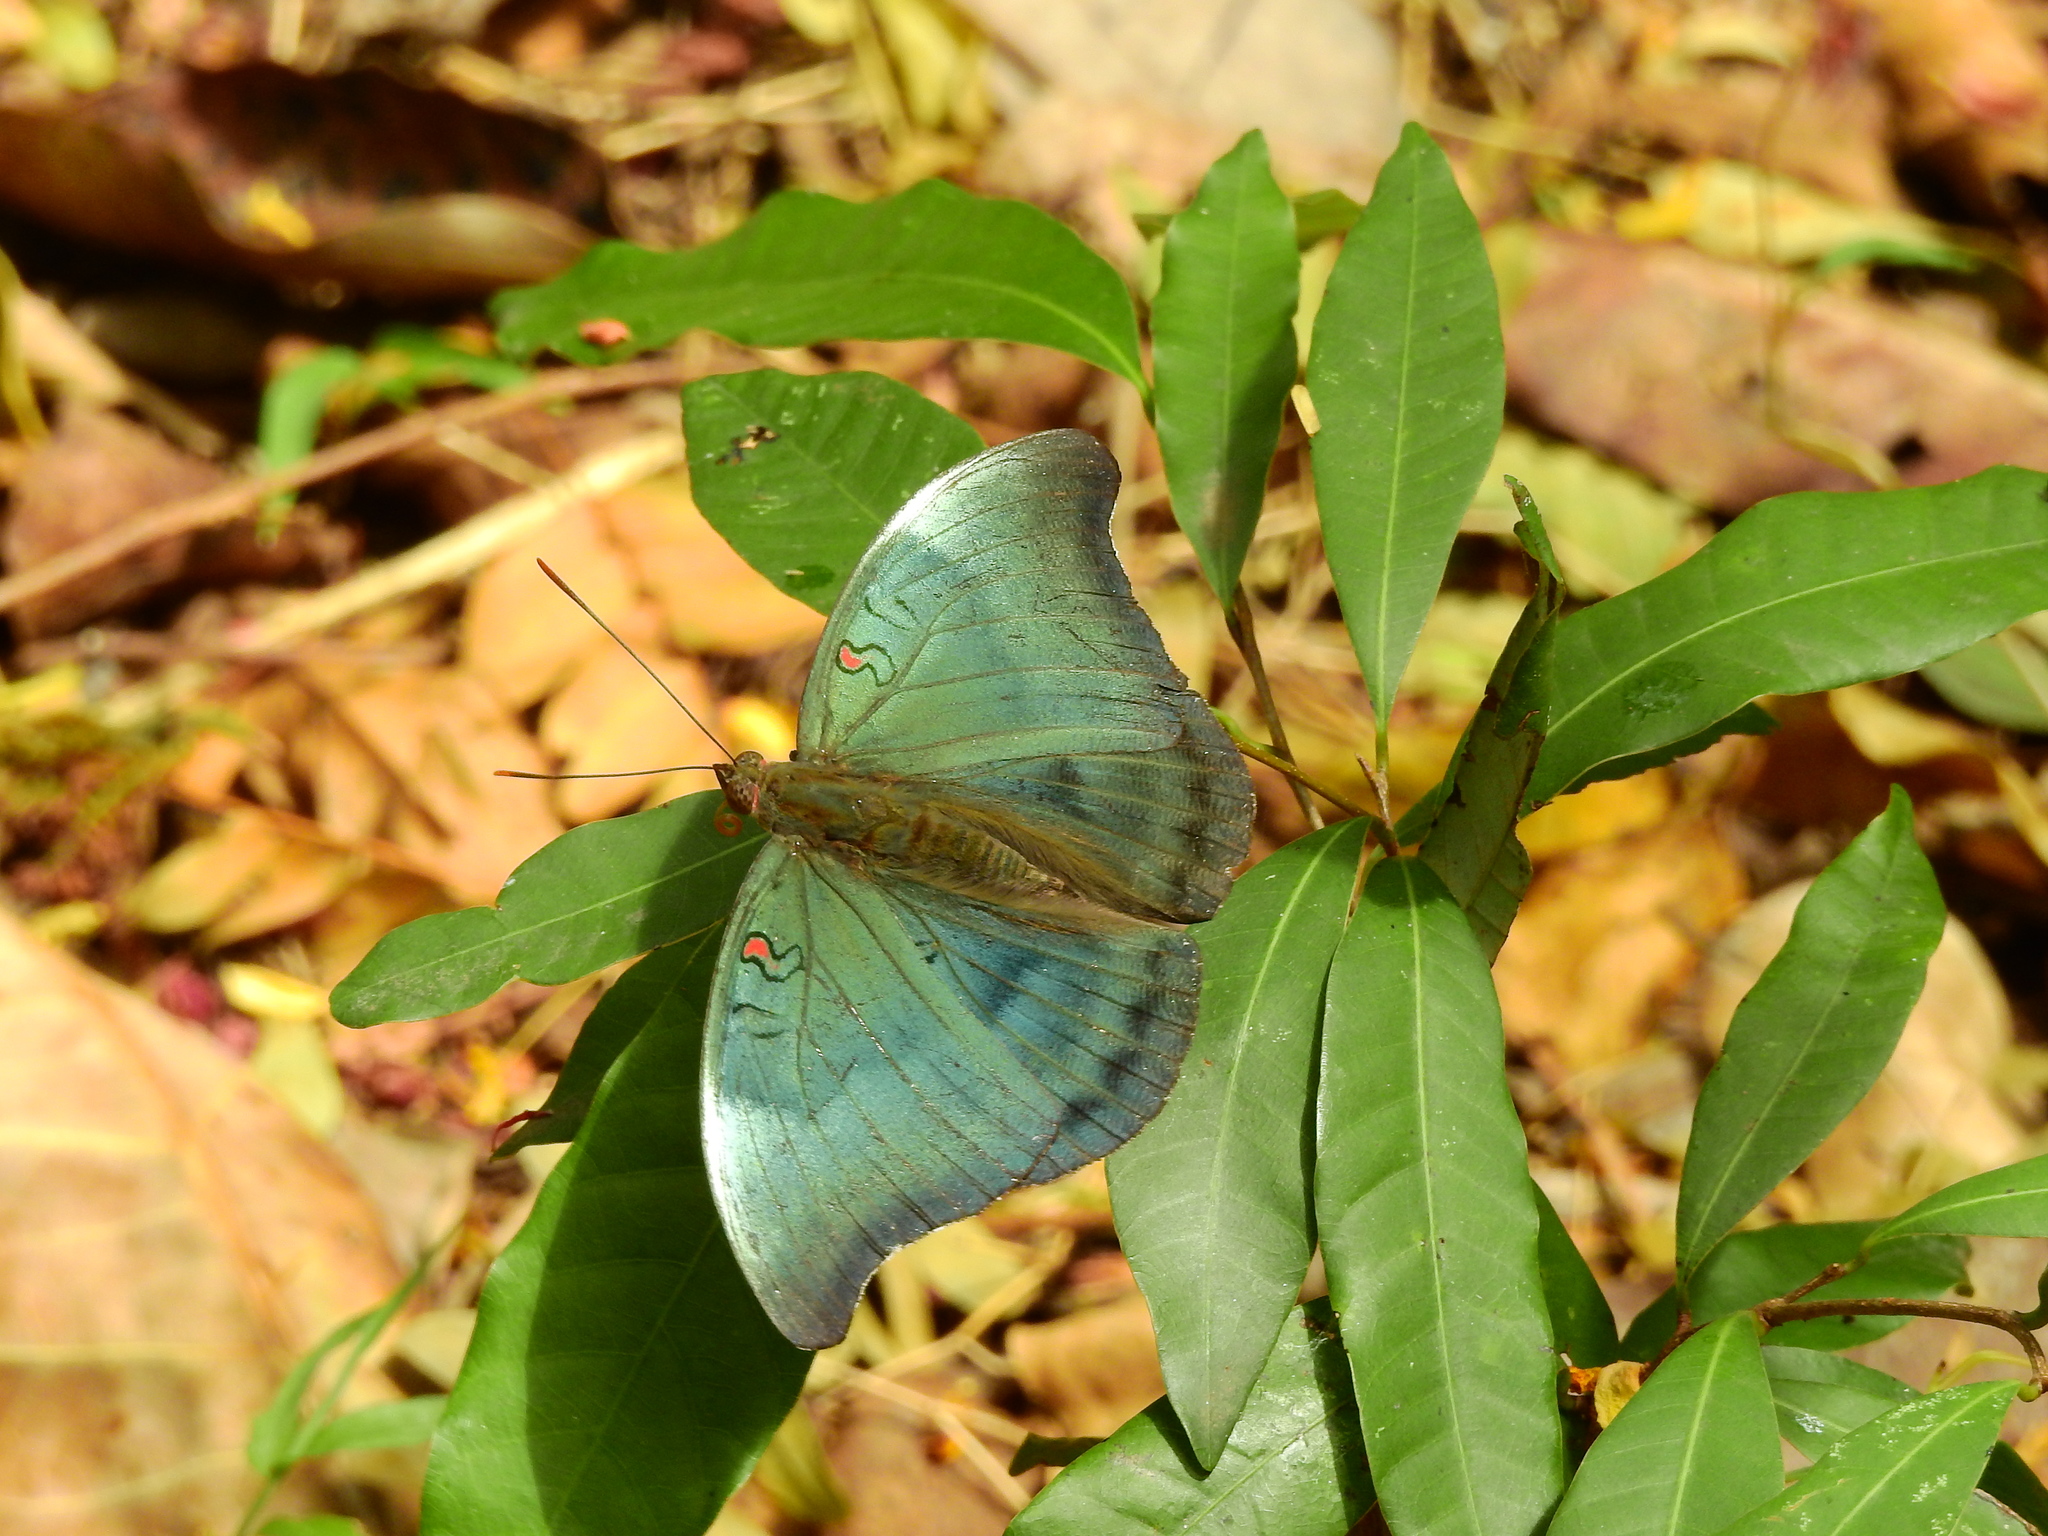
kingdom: Animalia
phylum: Arthropoda
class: Insecta
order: Lepidoptera
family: Nymphalidae
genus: Euthalia
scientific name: Euthalia Dophla evelina
